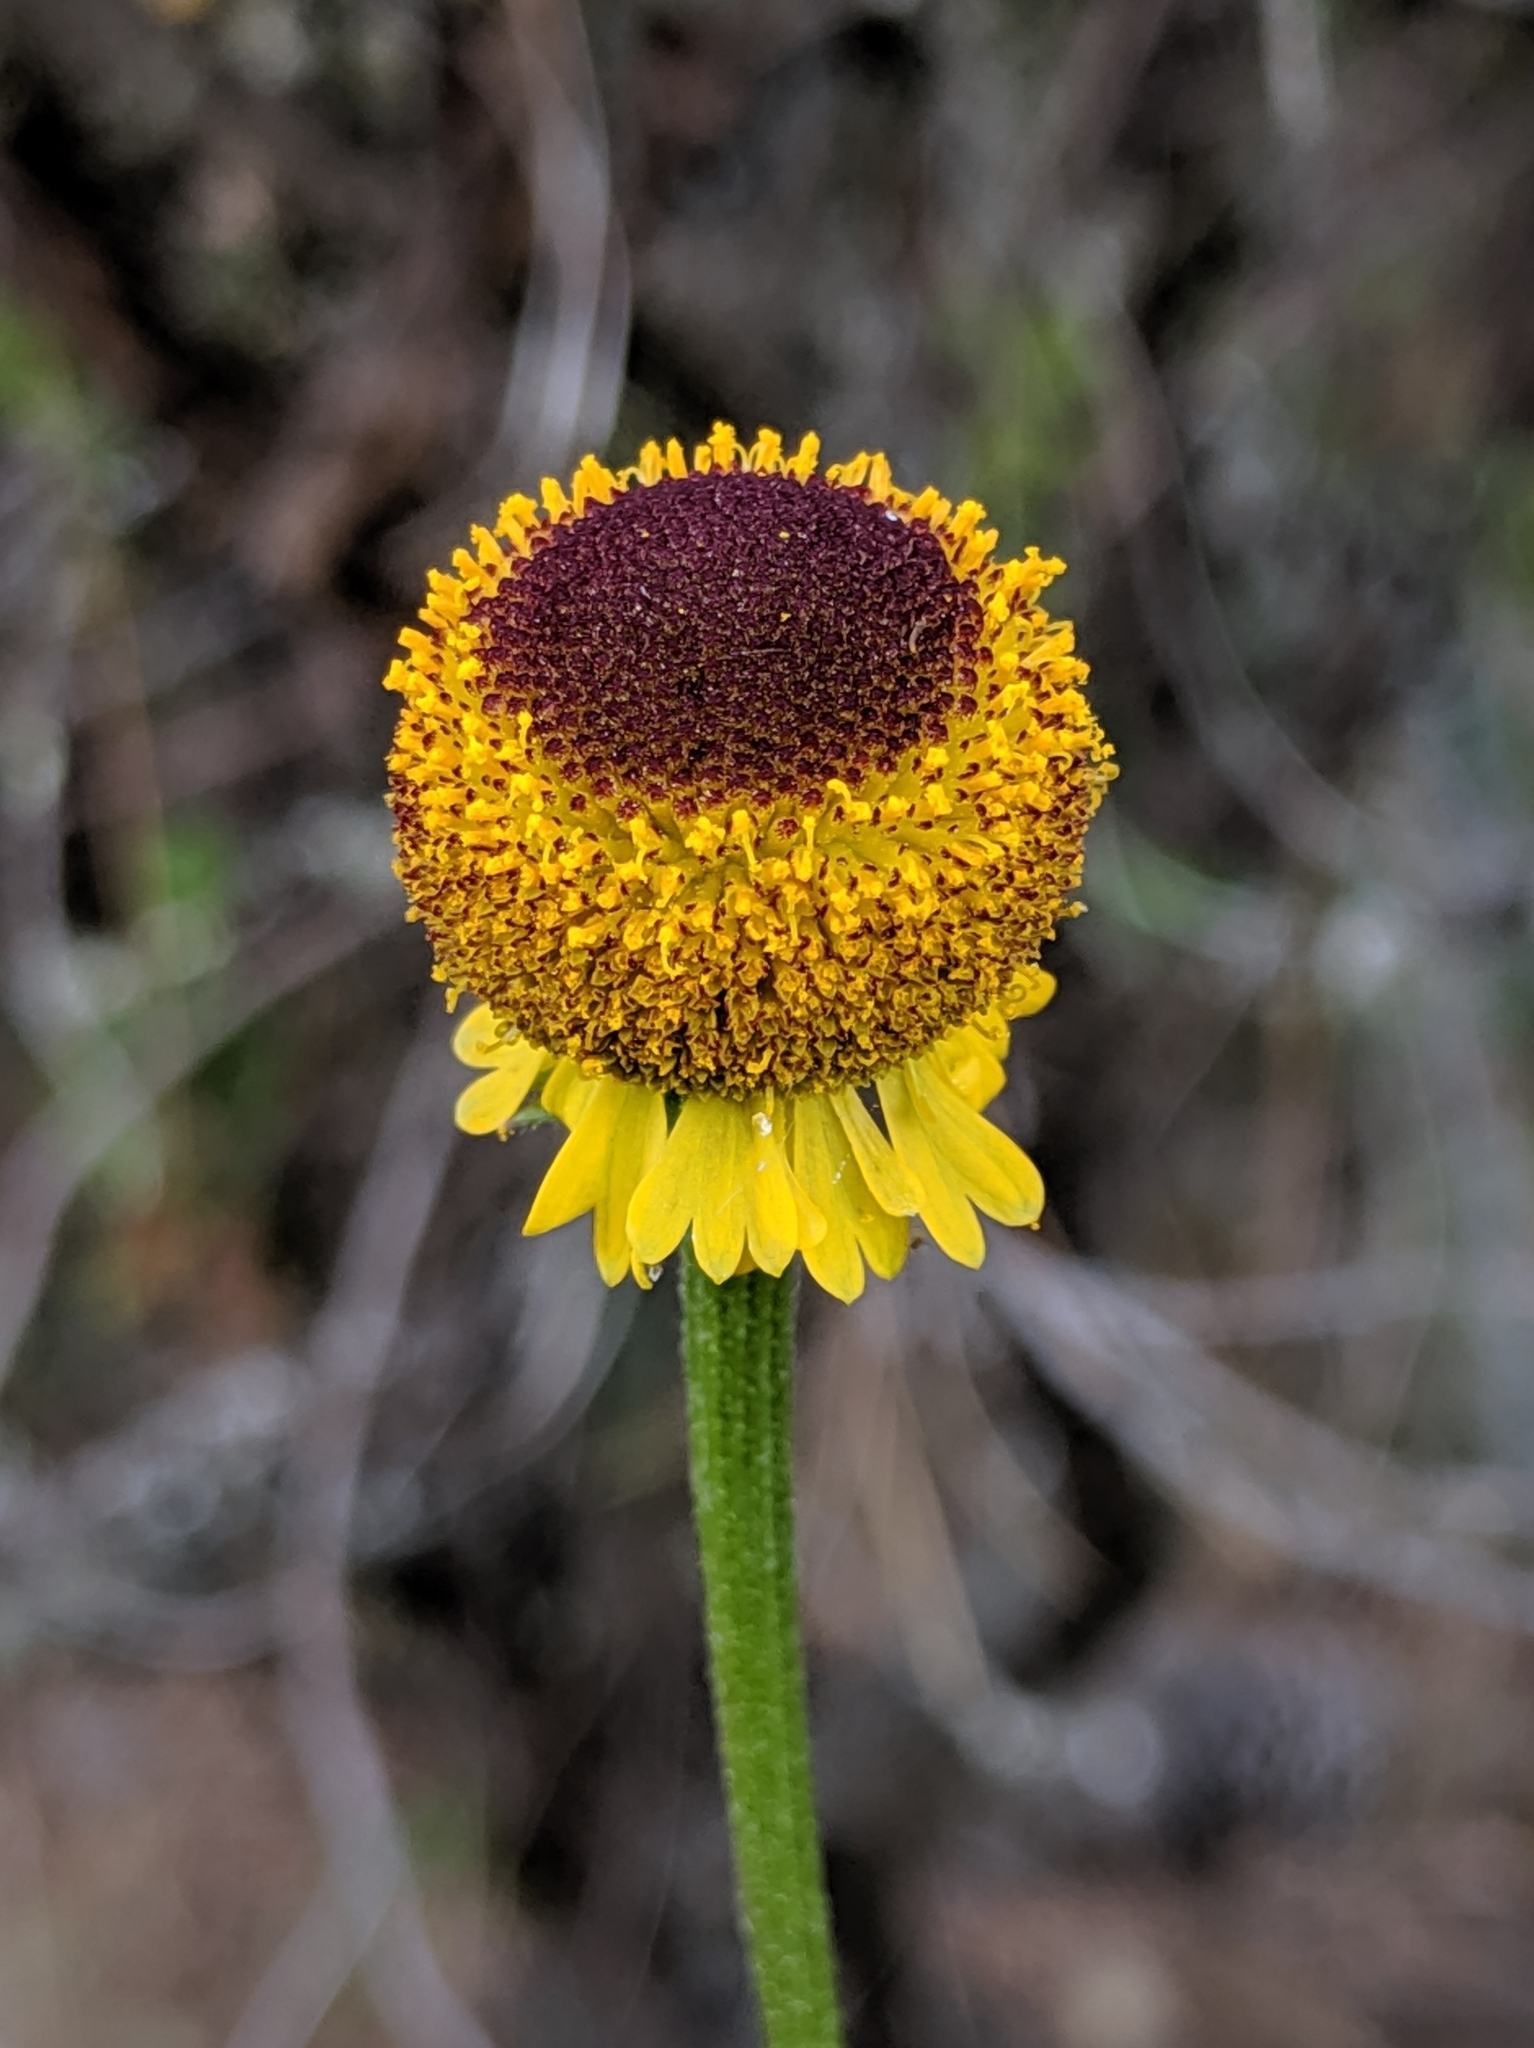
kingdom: Plantae
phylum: Tracheophyta
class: Magnoliopsida
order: Asterales
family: Asteraceae
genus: Helenium
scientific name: Helenium puberulum
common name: Sneezewort
